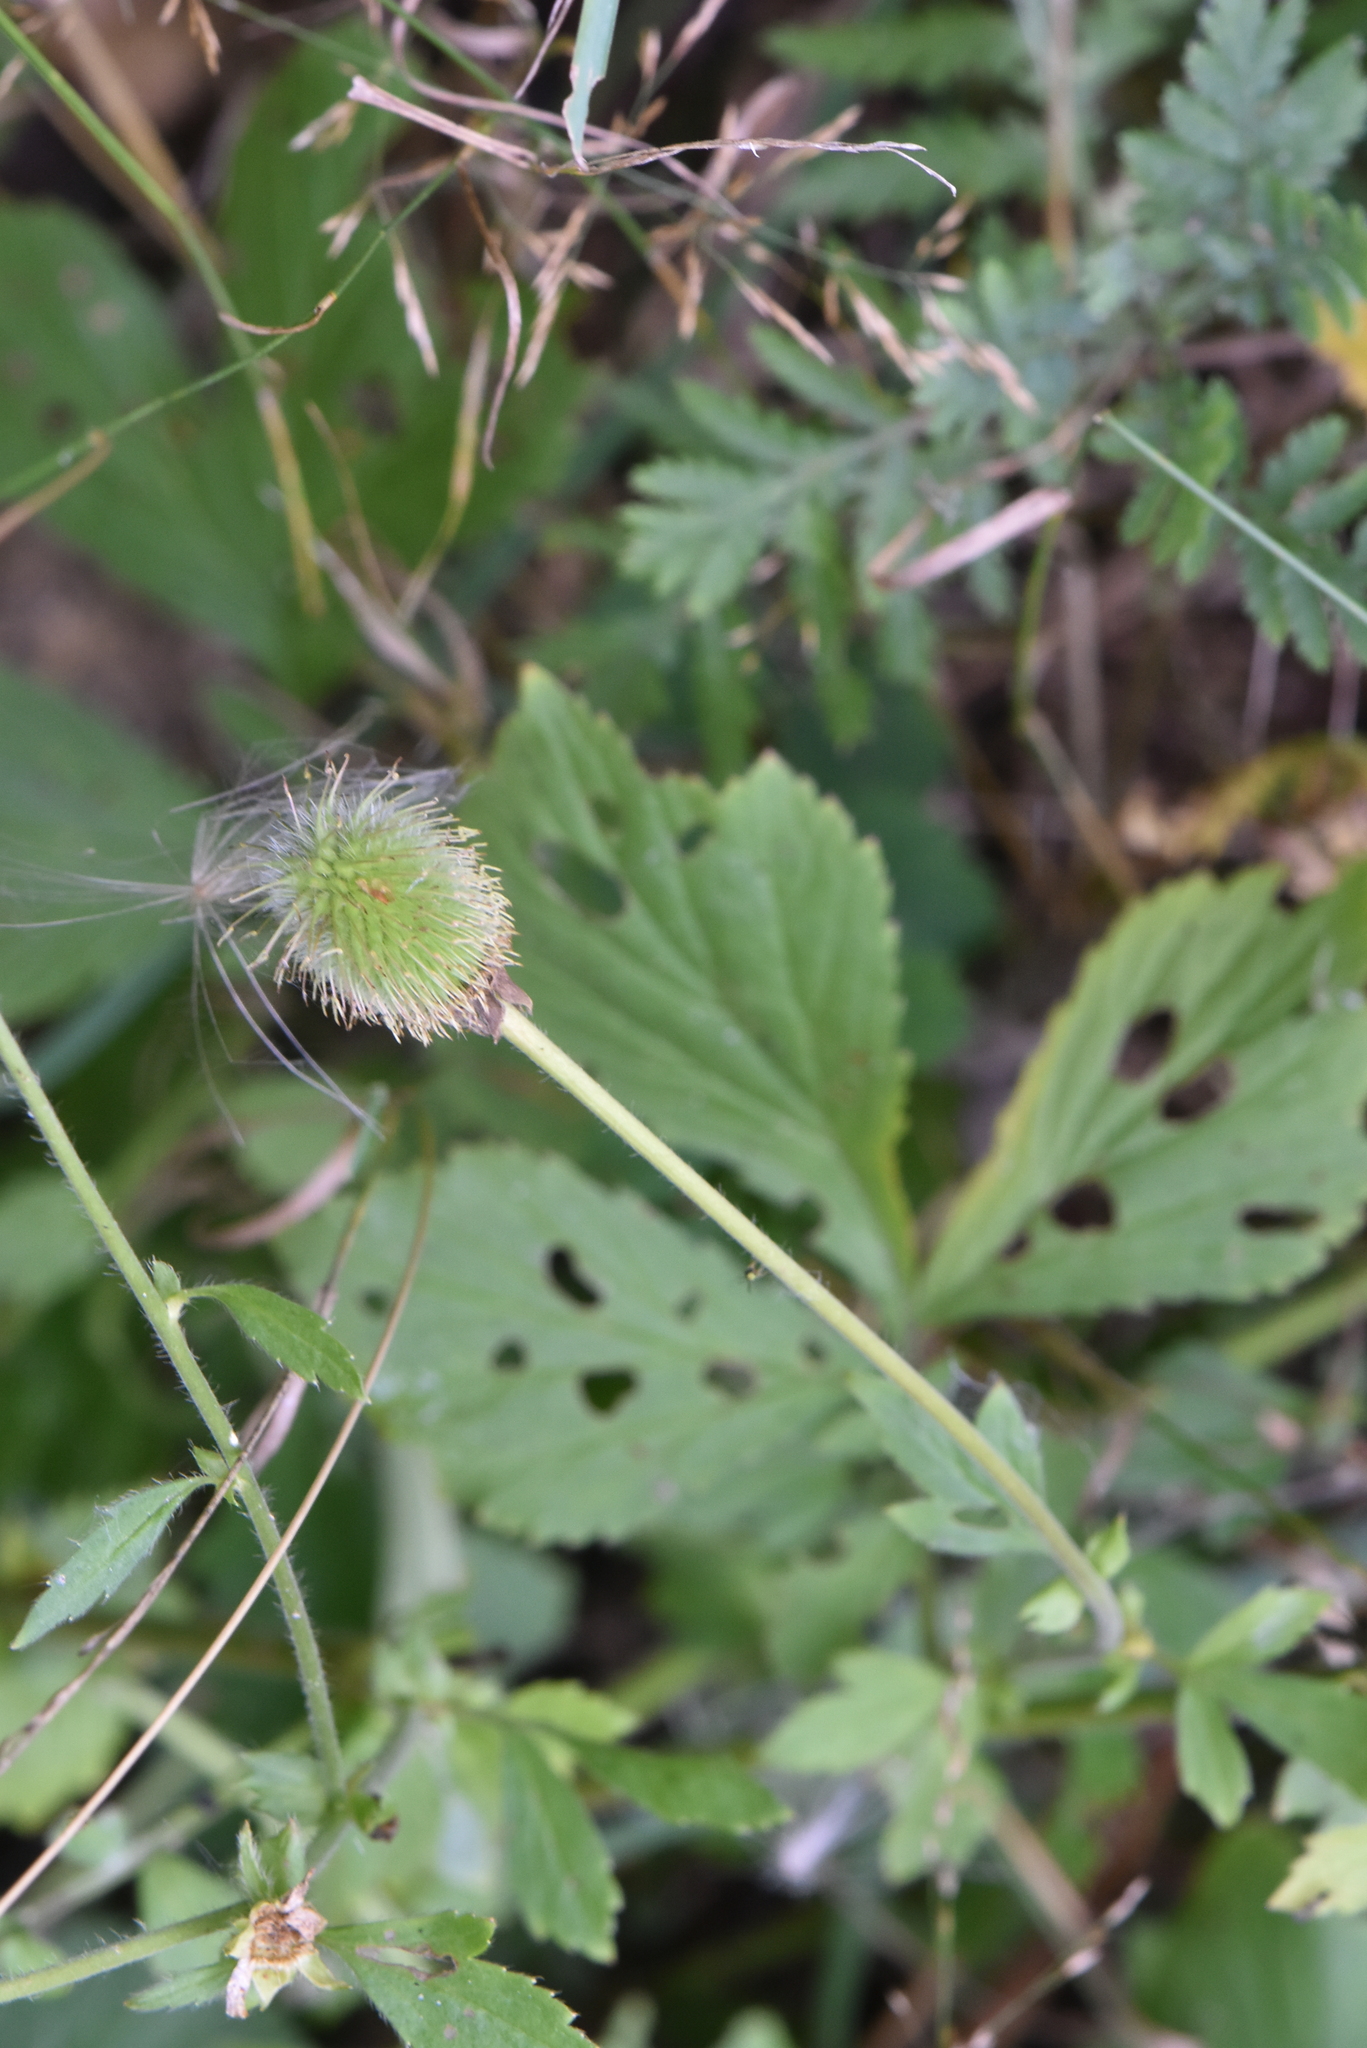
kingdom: Plantae
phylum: Tracheophyta
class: Magnoliopsida
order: Rosales
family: Rosaceae
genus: Geum
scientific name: Geum aleppicum
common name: Yellow avens
